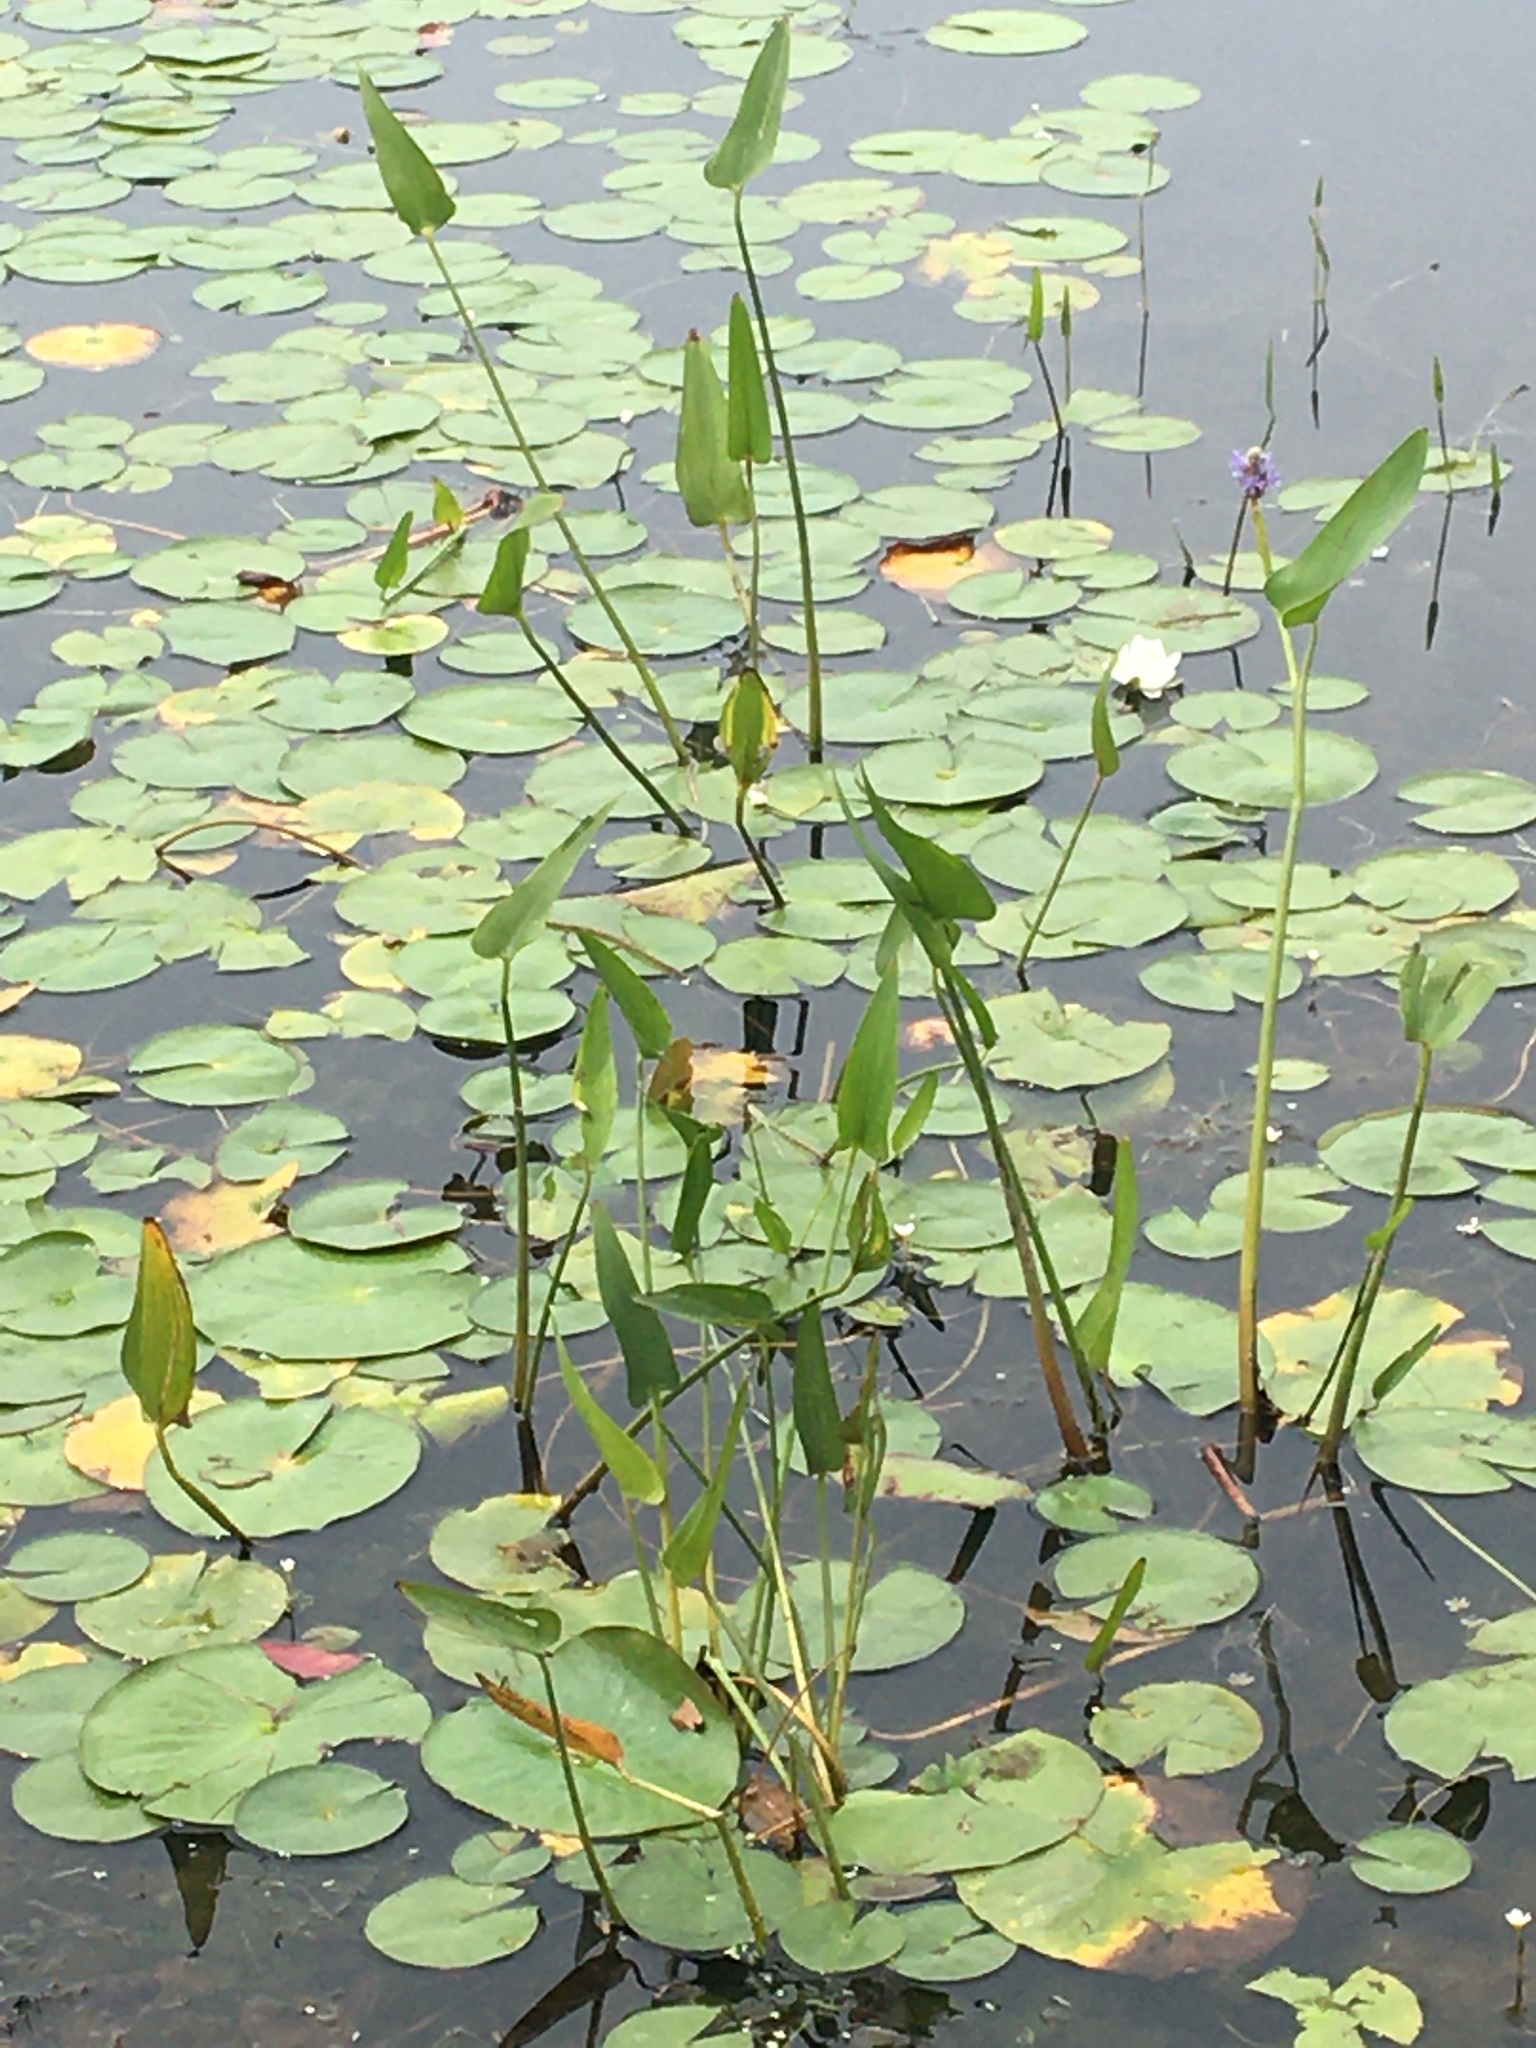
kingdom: Plantae
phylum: Tracheophyta
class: Liliopsida
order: Commelinales
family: Pontederiaceae
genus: Pontederia
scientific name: Pontederia cordata
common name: Pickerelweed
